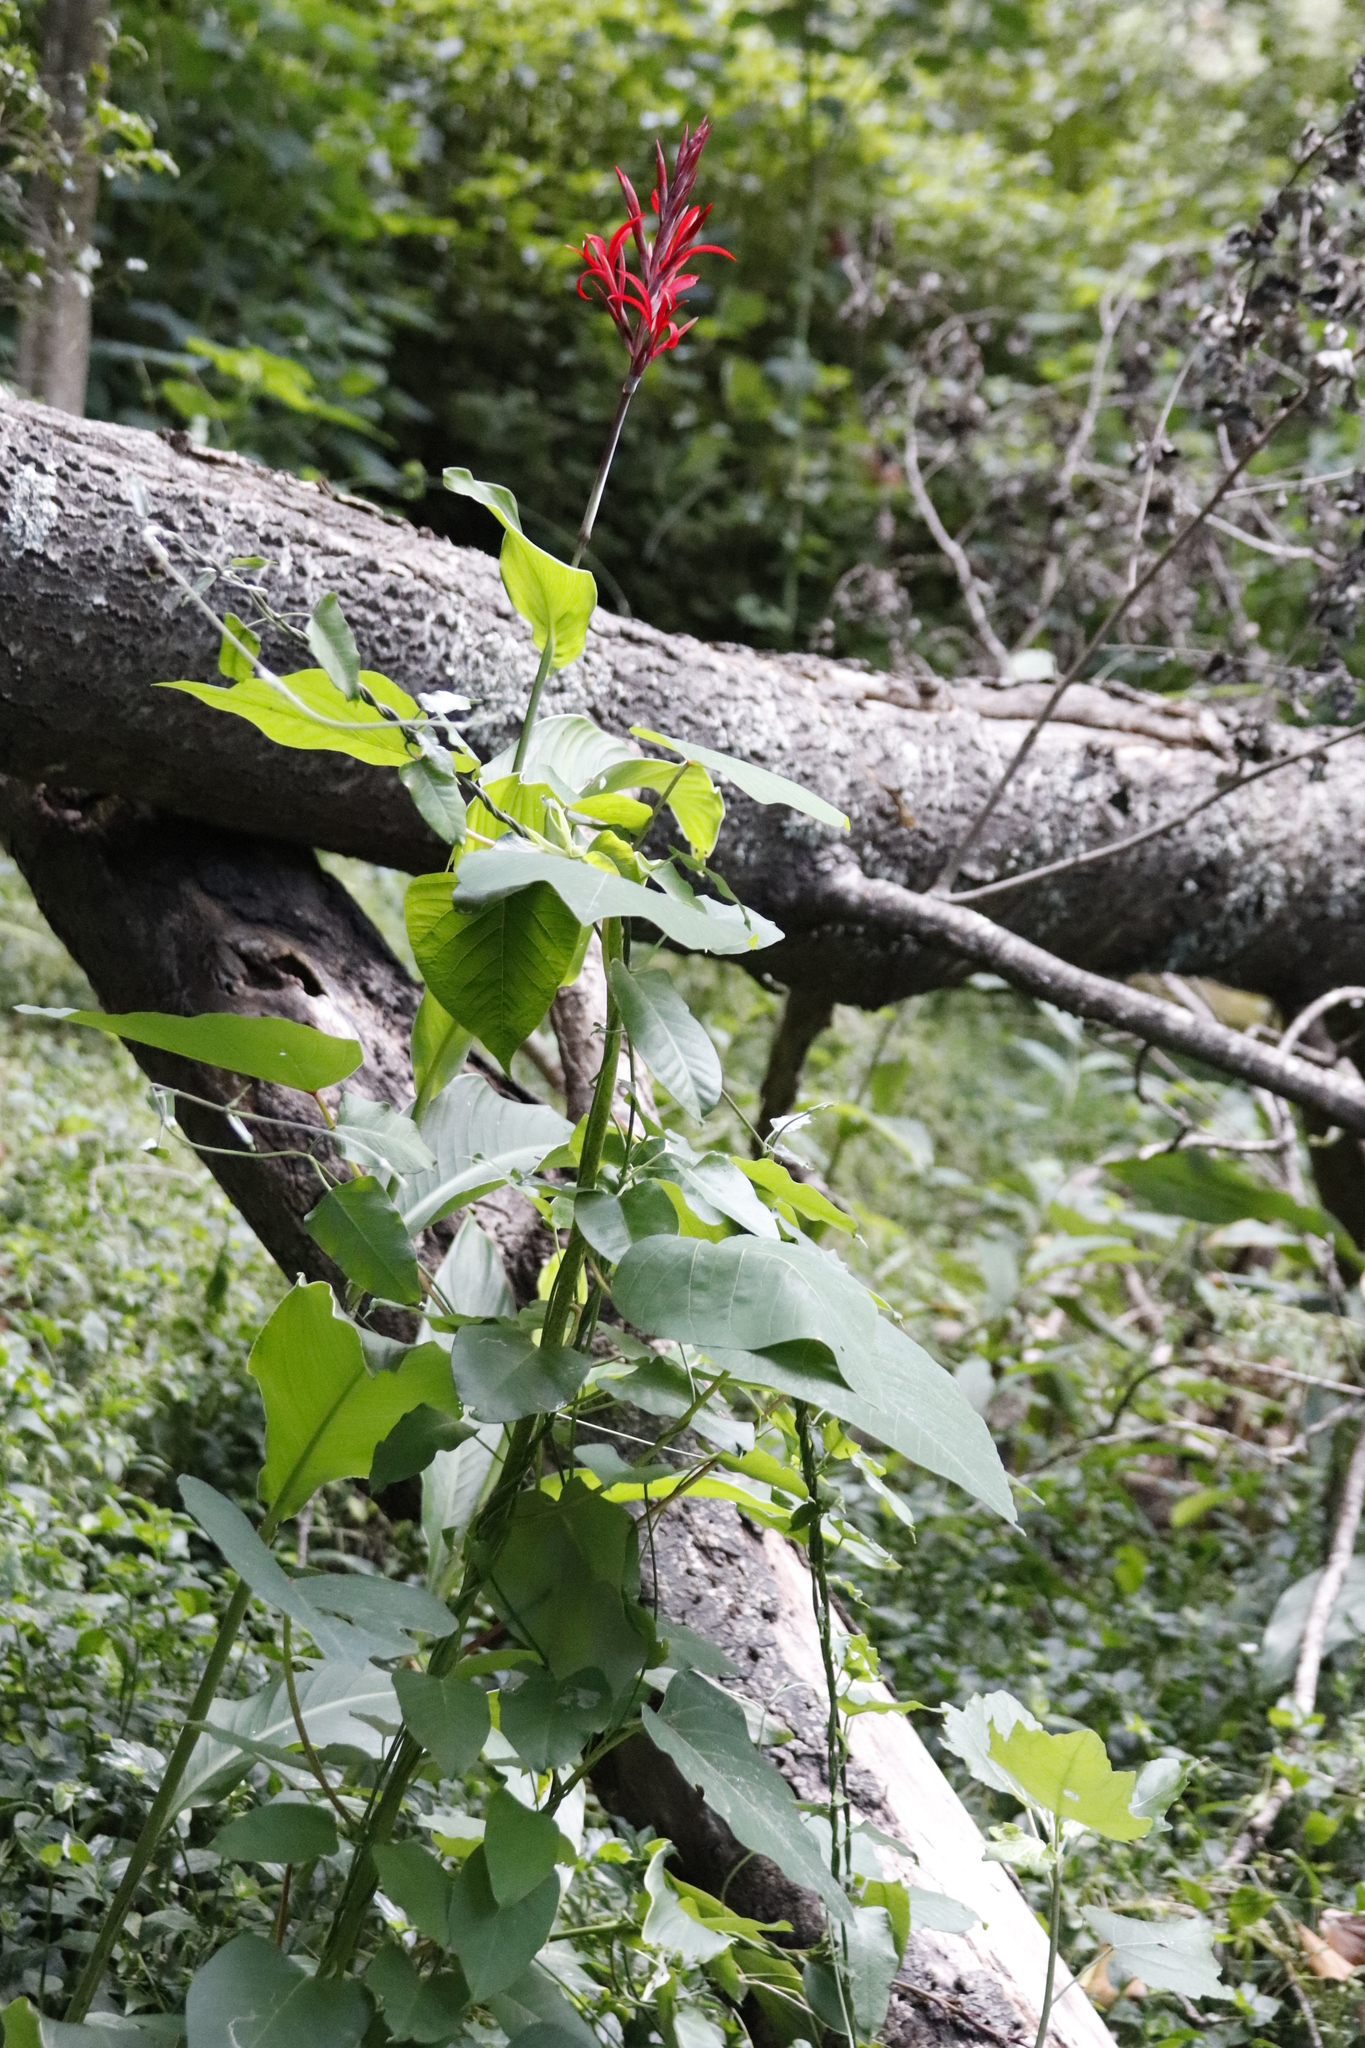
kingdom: Plantae
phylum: Tracheophyta
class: Liliopsida
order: Zingiberales
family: Cannaceae
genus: Canna
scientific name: Canna indica
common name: Indian shot
